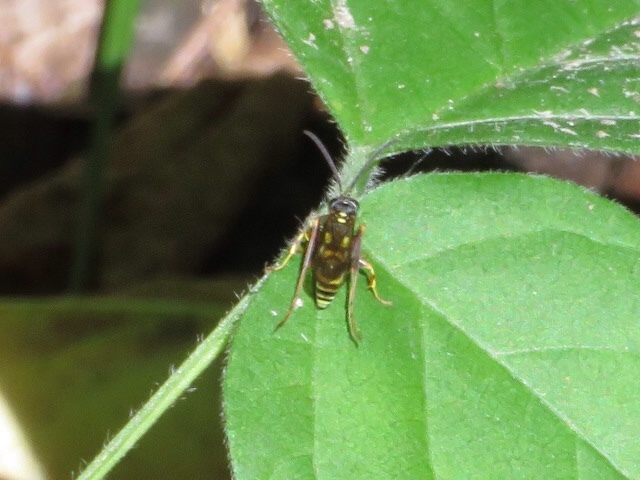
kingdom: Animalia
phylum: Arthropoda
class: Insecta
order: Hymenoptera
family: Pompilidae
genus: Ceropales
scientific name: Ceropales maculata
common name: Spider wasp
